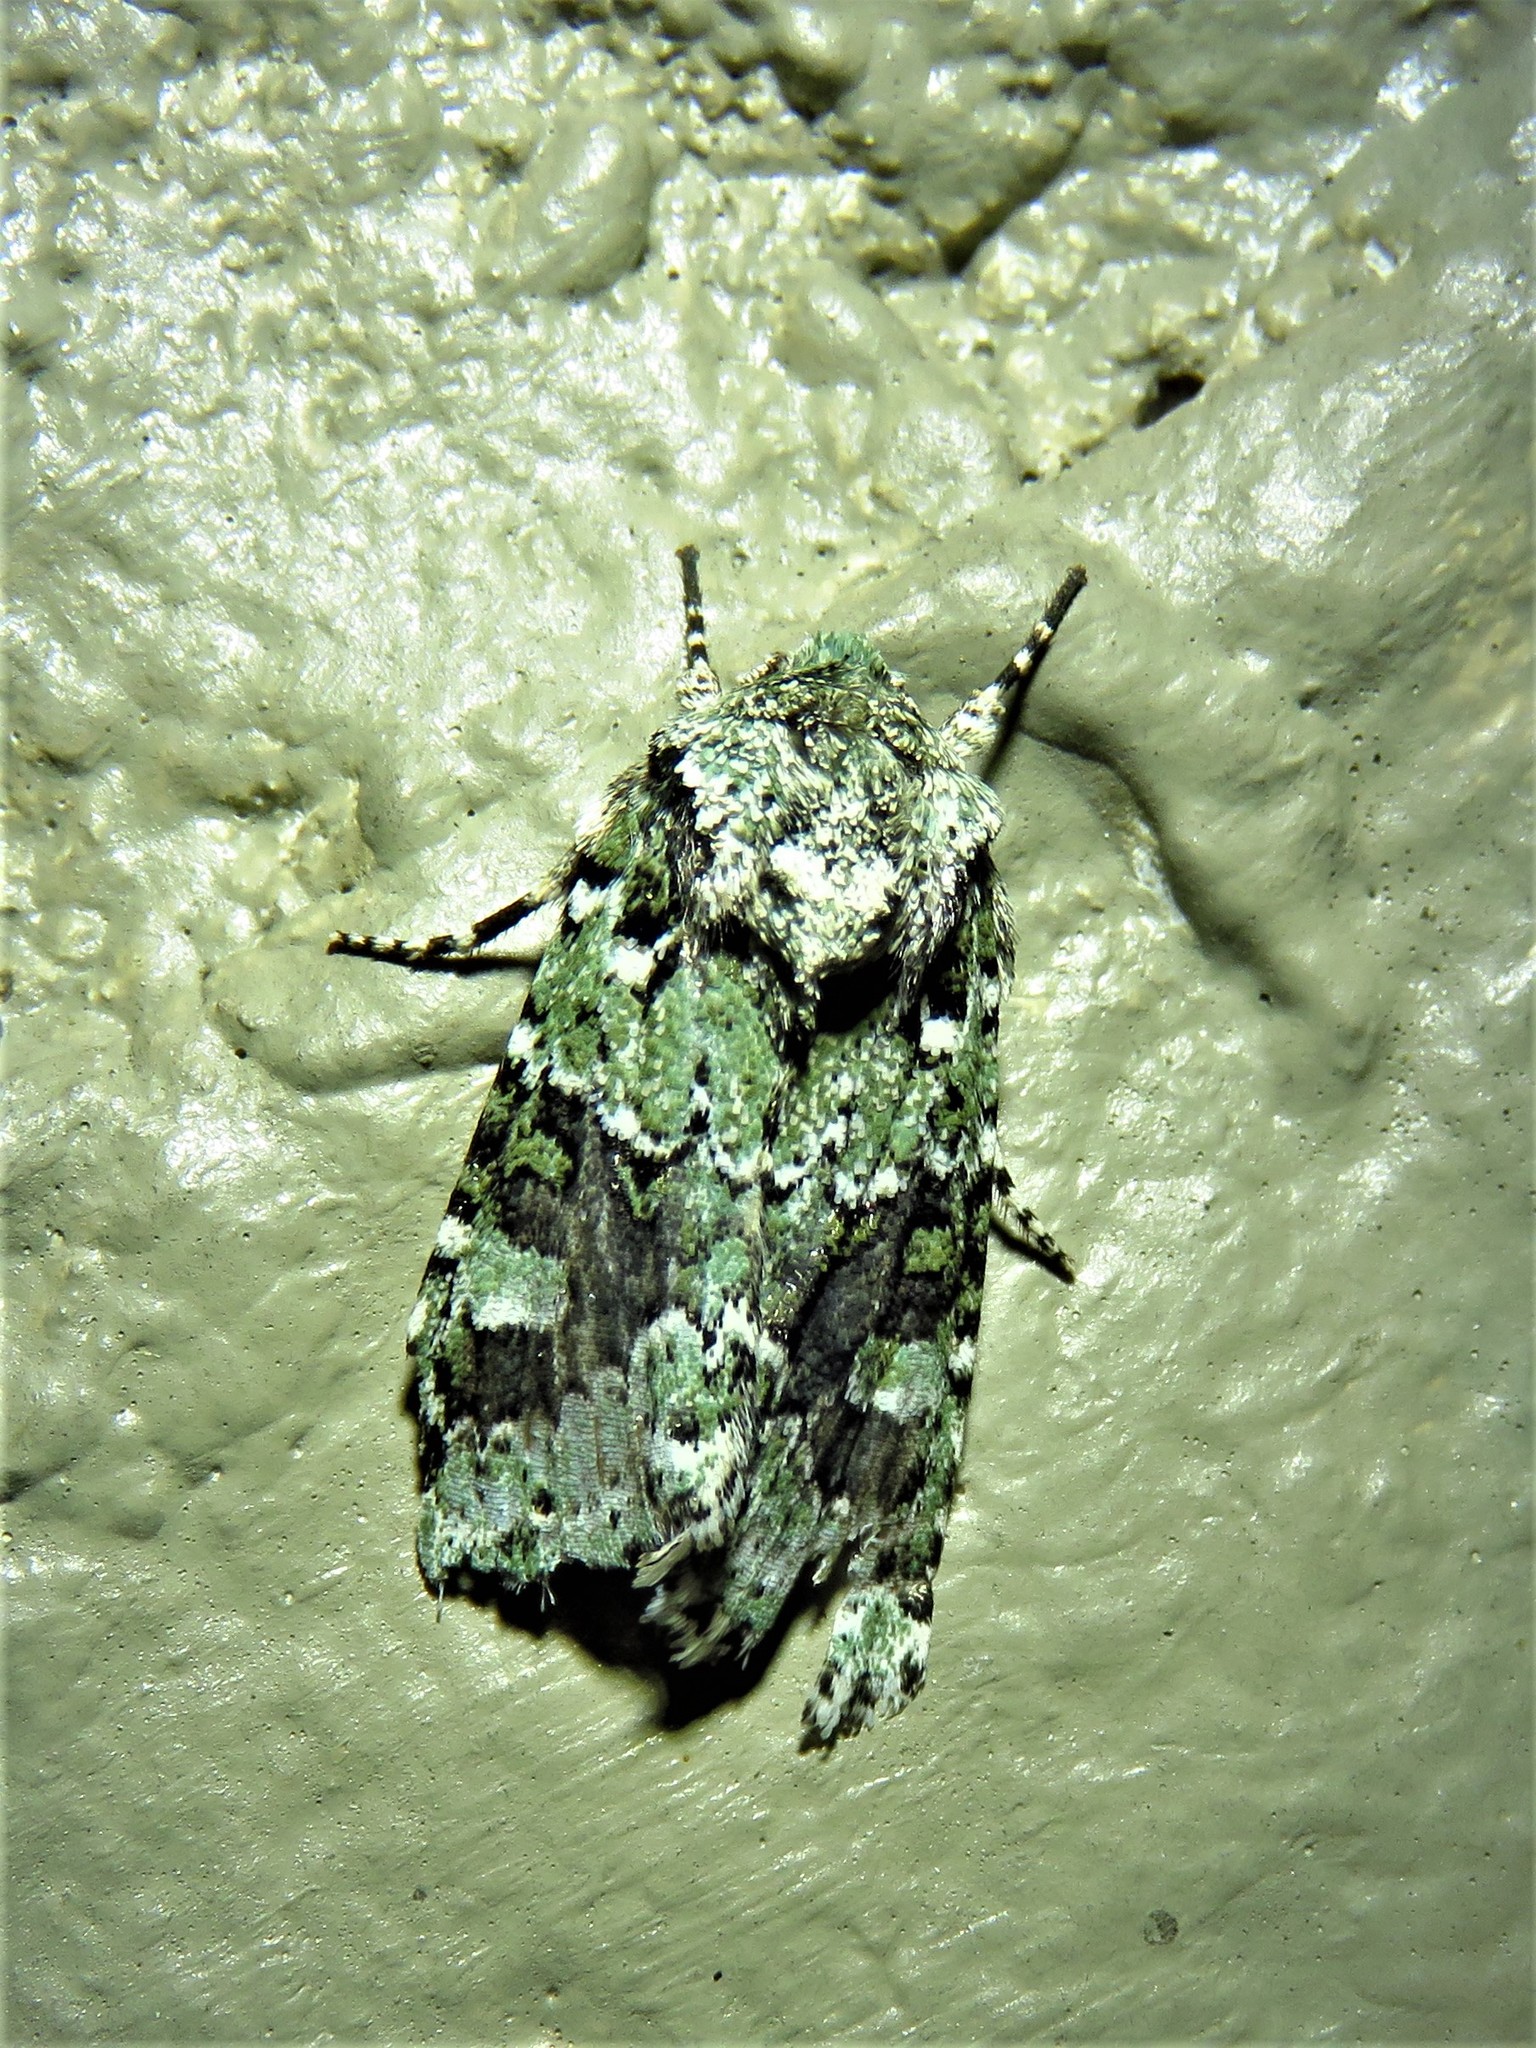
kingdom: Animalia
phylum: Arthropoda
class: Insecta
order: Lepidoptera
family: Noctuidae
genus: Lacinipolia
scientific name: Lacinipolia laudabilis
